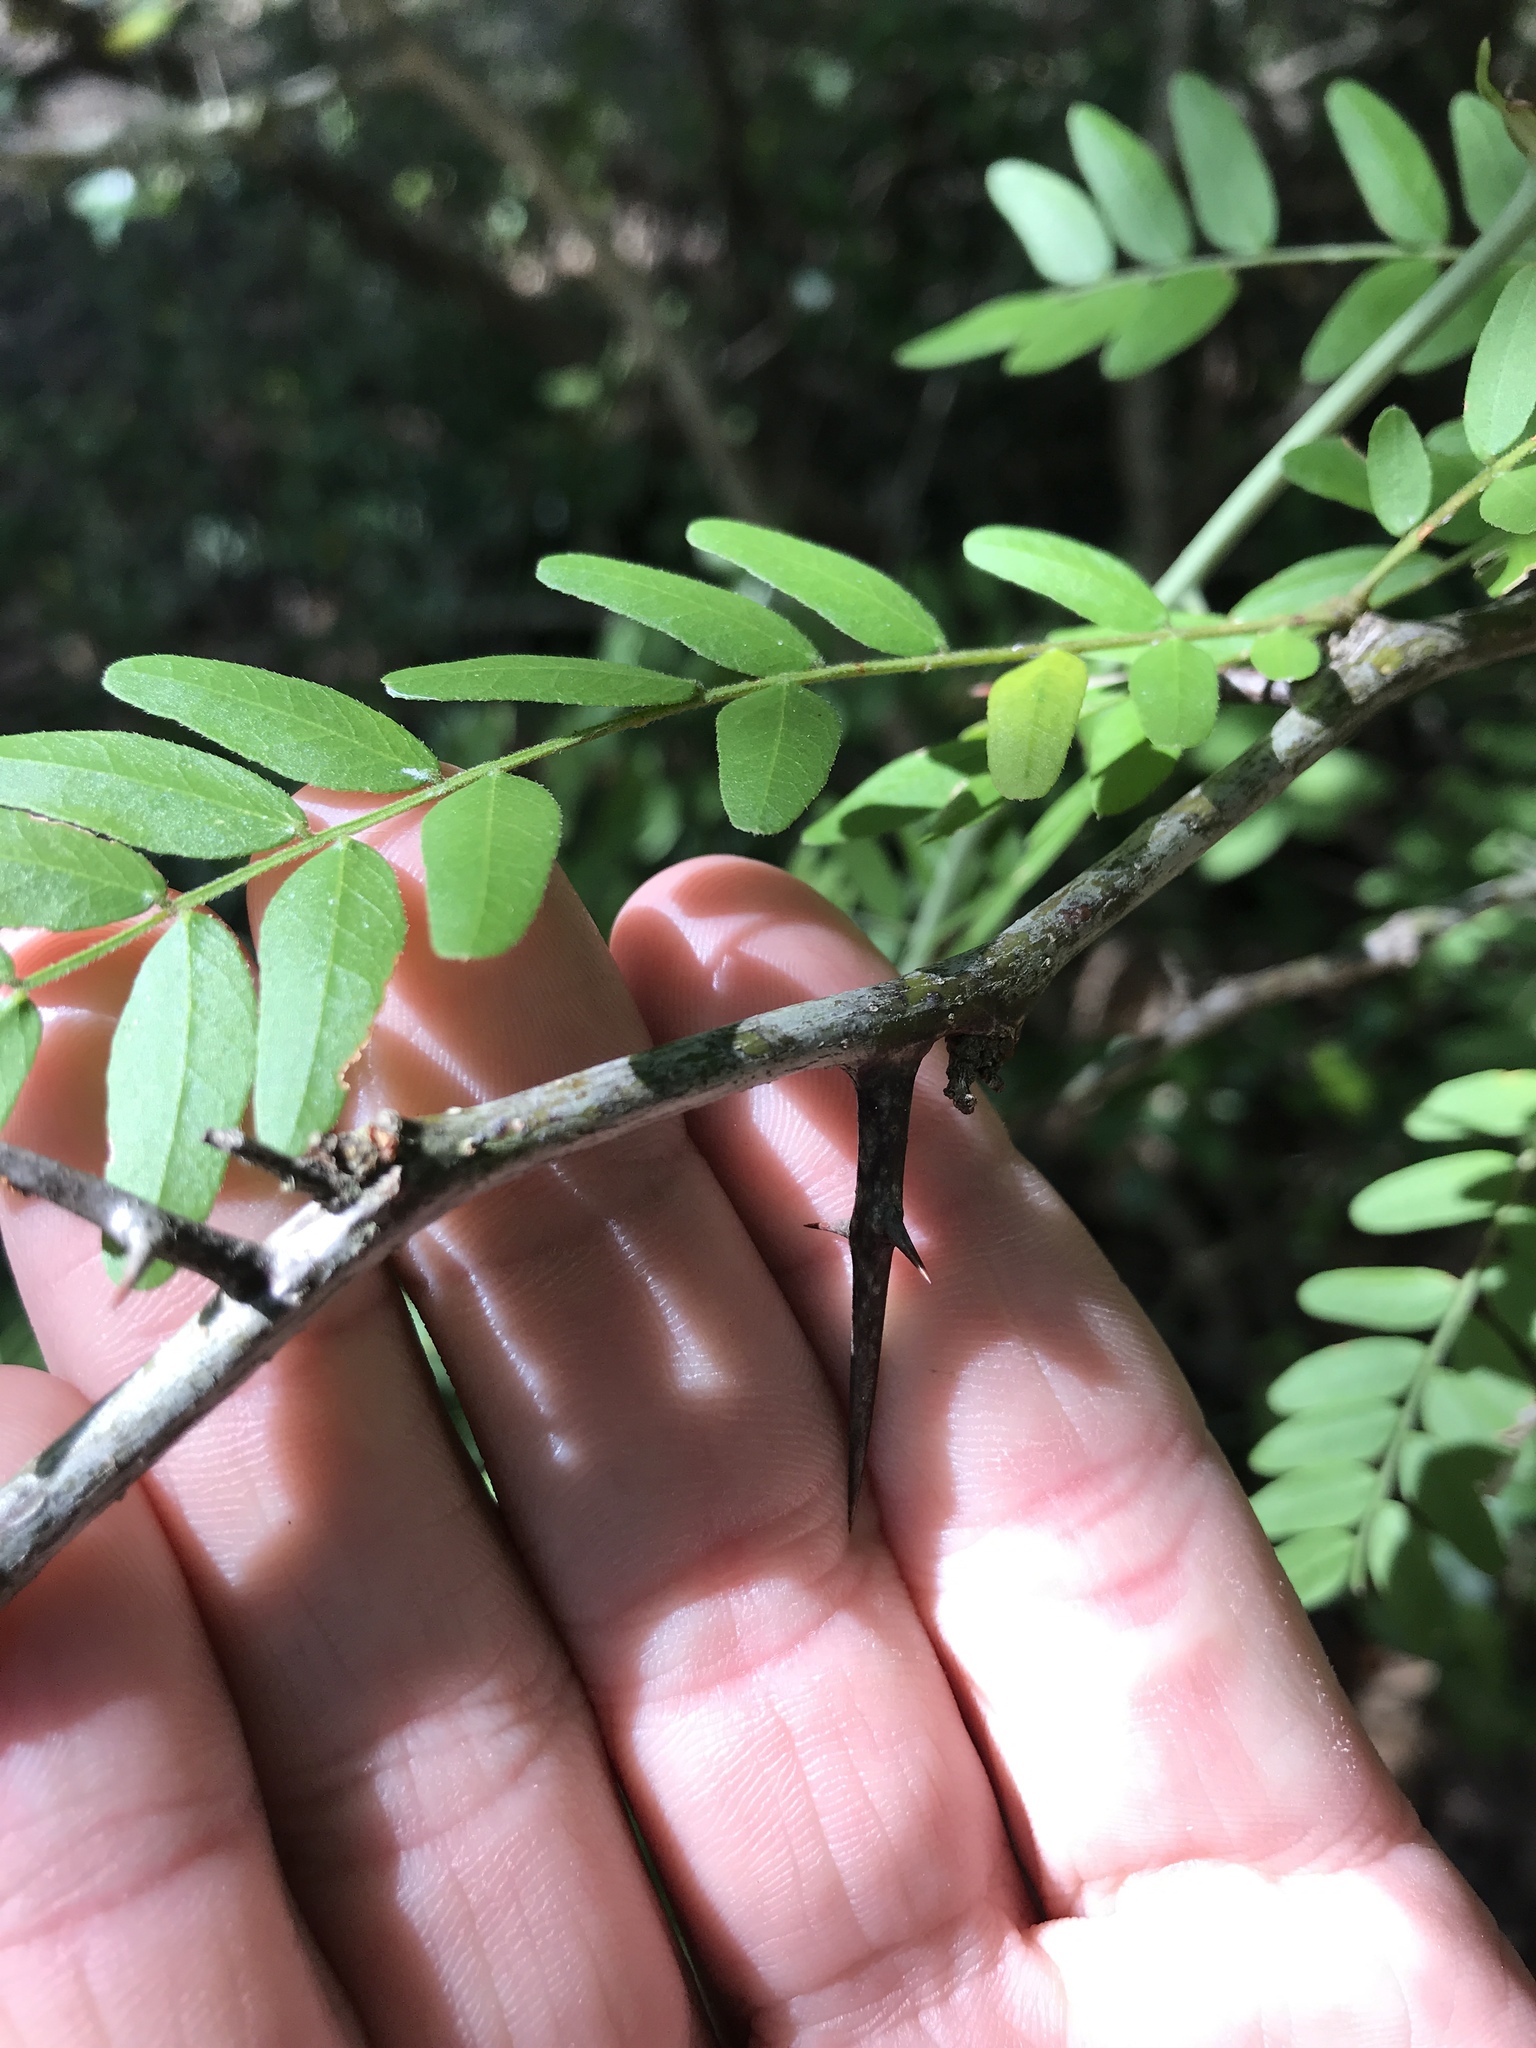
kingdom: Plantae
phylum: Tracheophyta
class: Magnoliopsida
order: Fabales
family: Fabaceae
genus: Gleditsia
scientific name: Gleditsia triacanthos
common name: Common honeylocust
